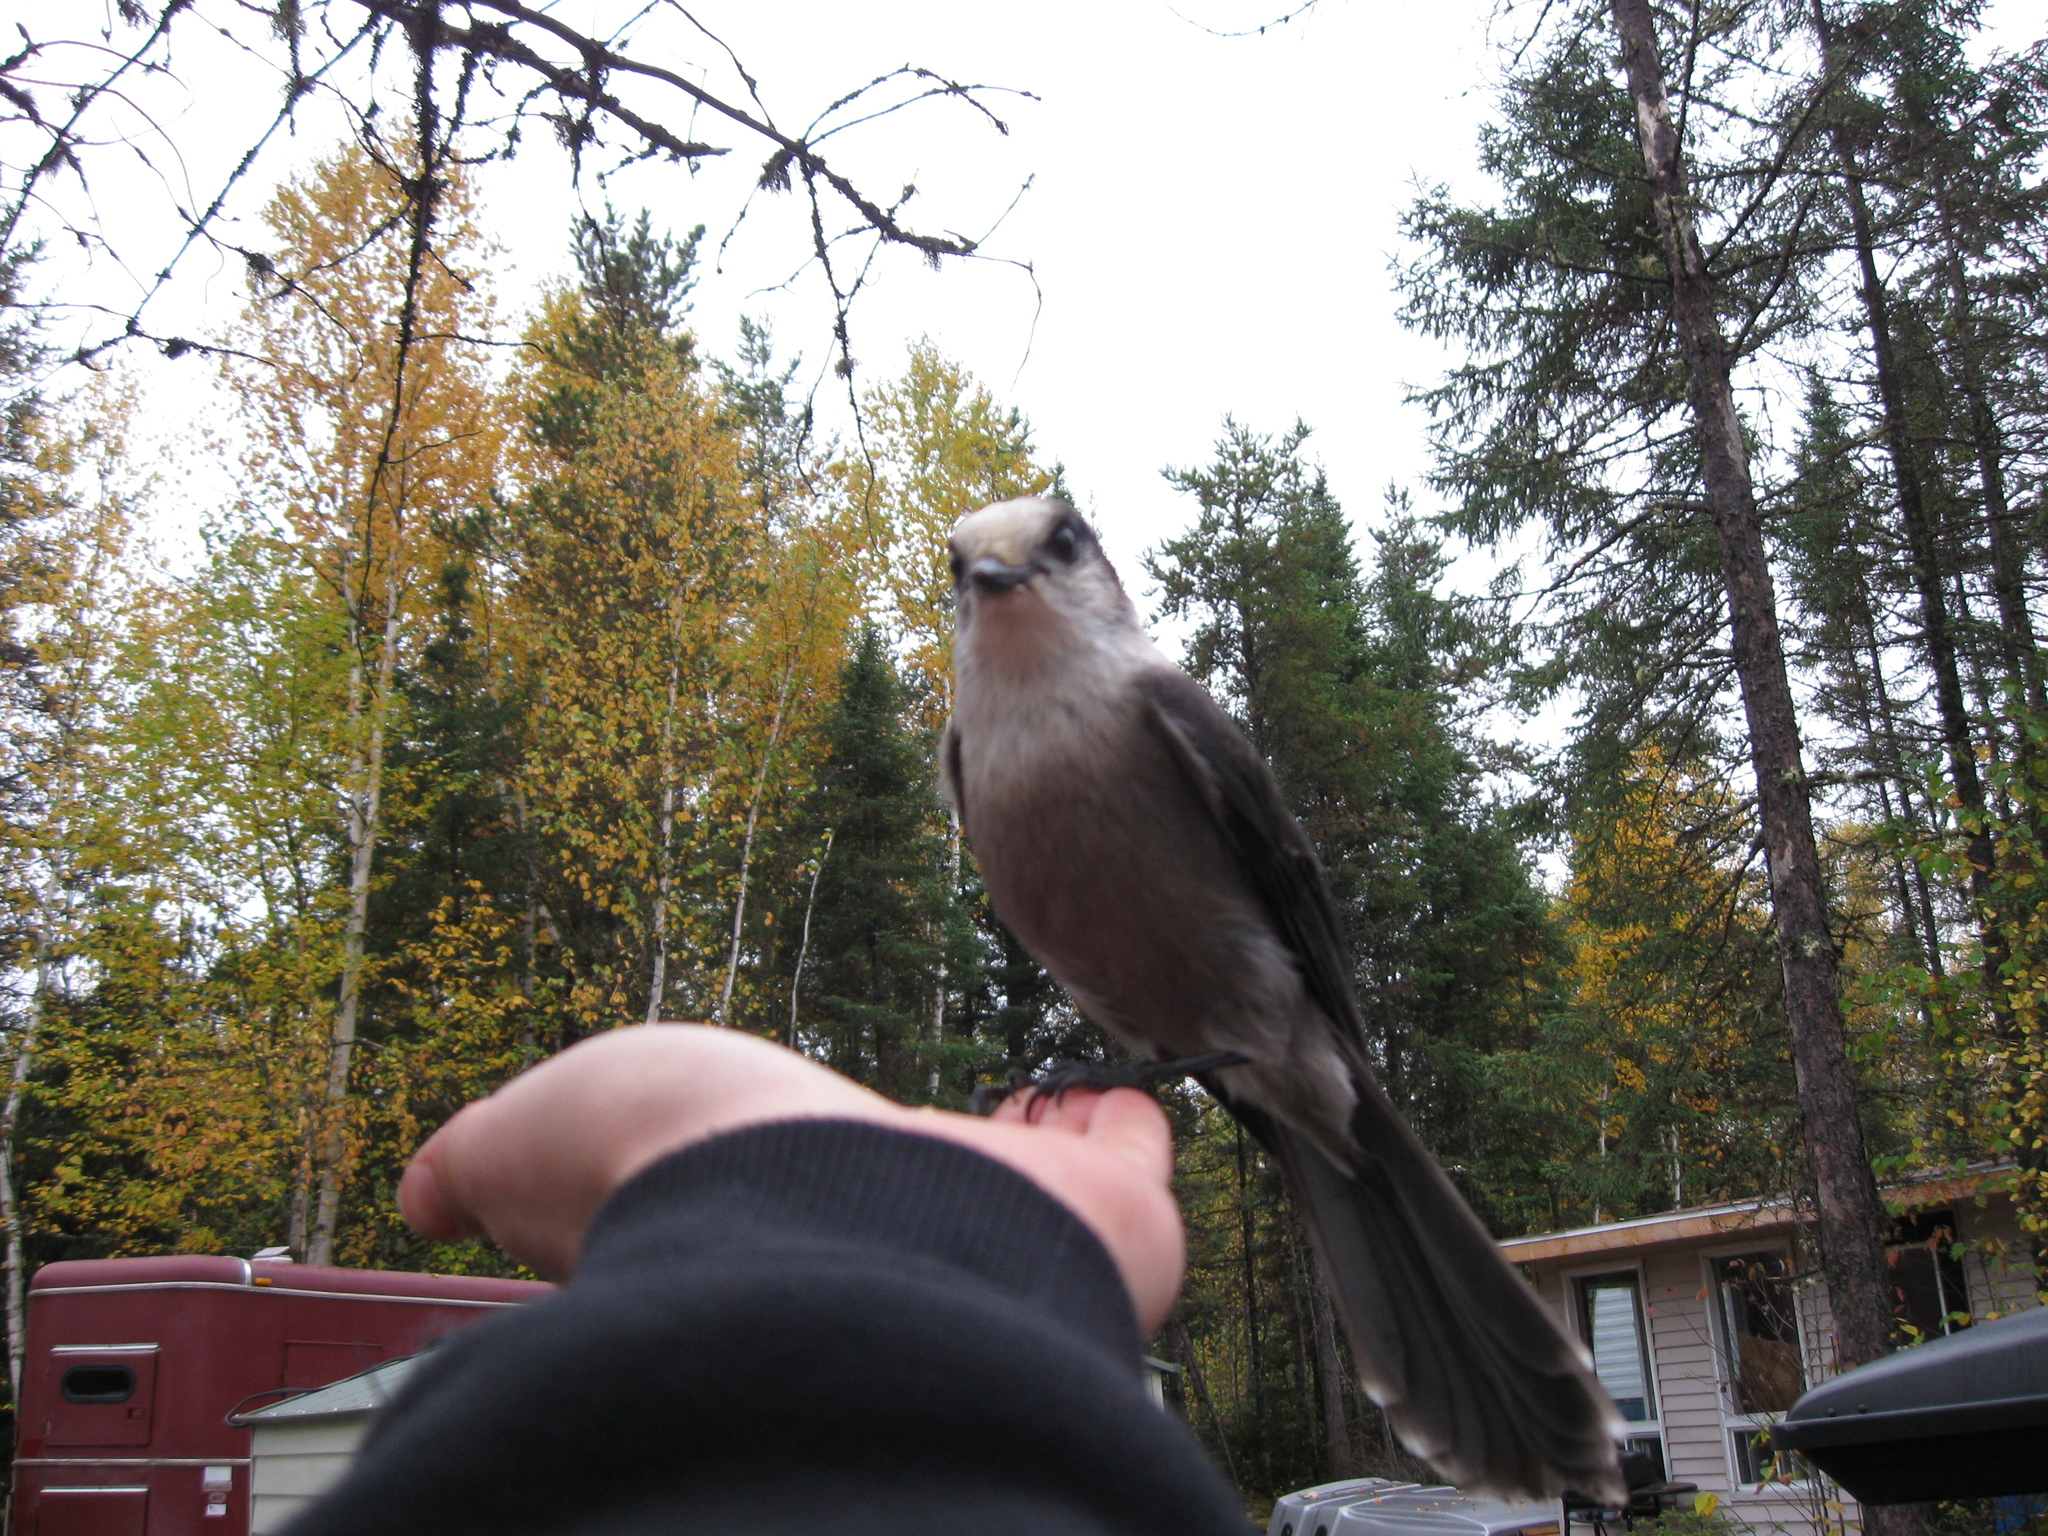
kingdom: Animalia
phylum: Chordata
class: Aves
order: Passeriformes
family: Corvidae
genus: Perisoreus
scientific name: Perisoreus canadensis
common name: Gray jay
